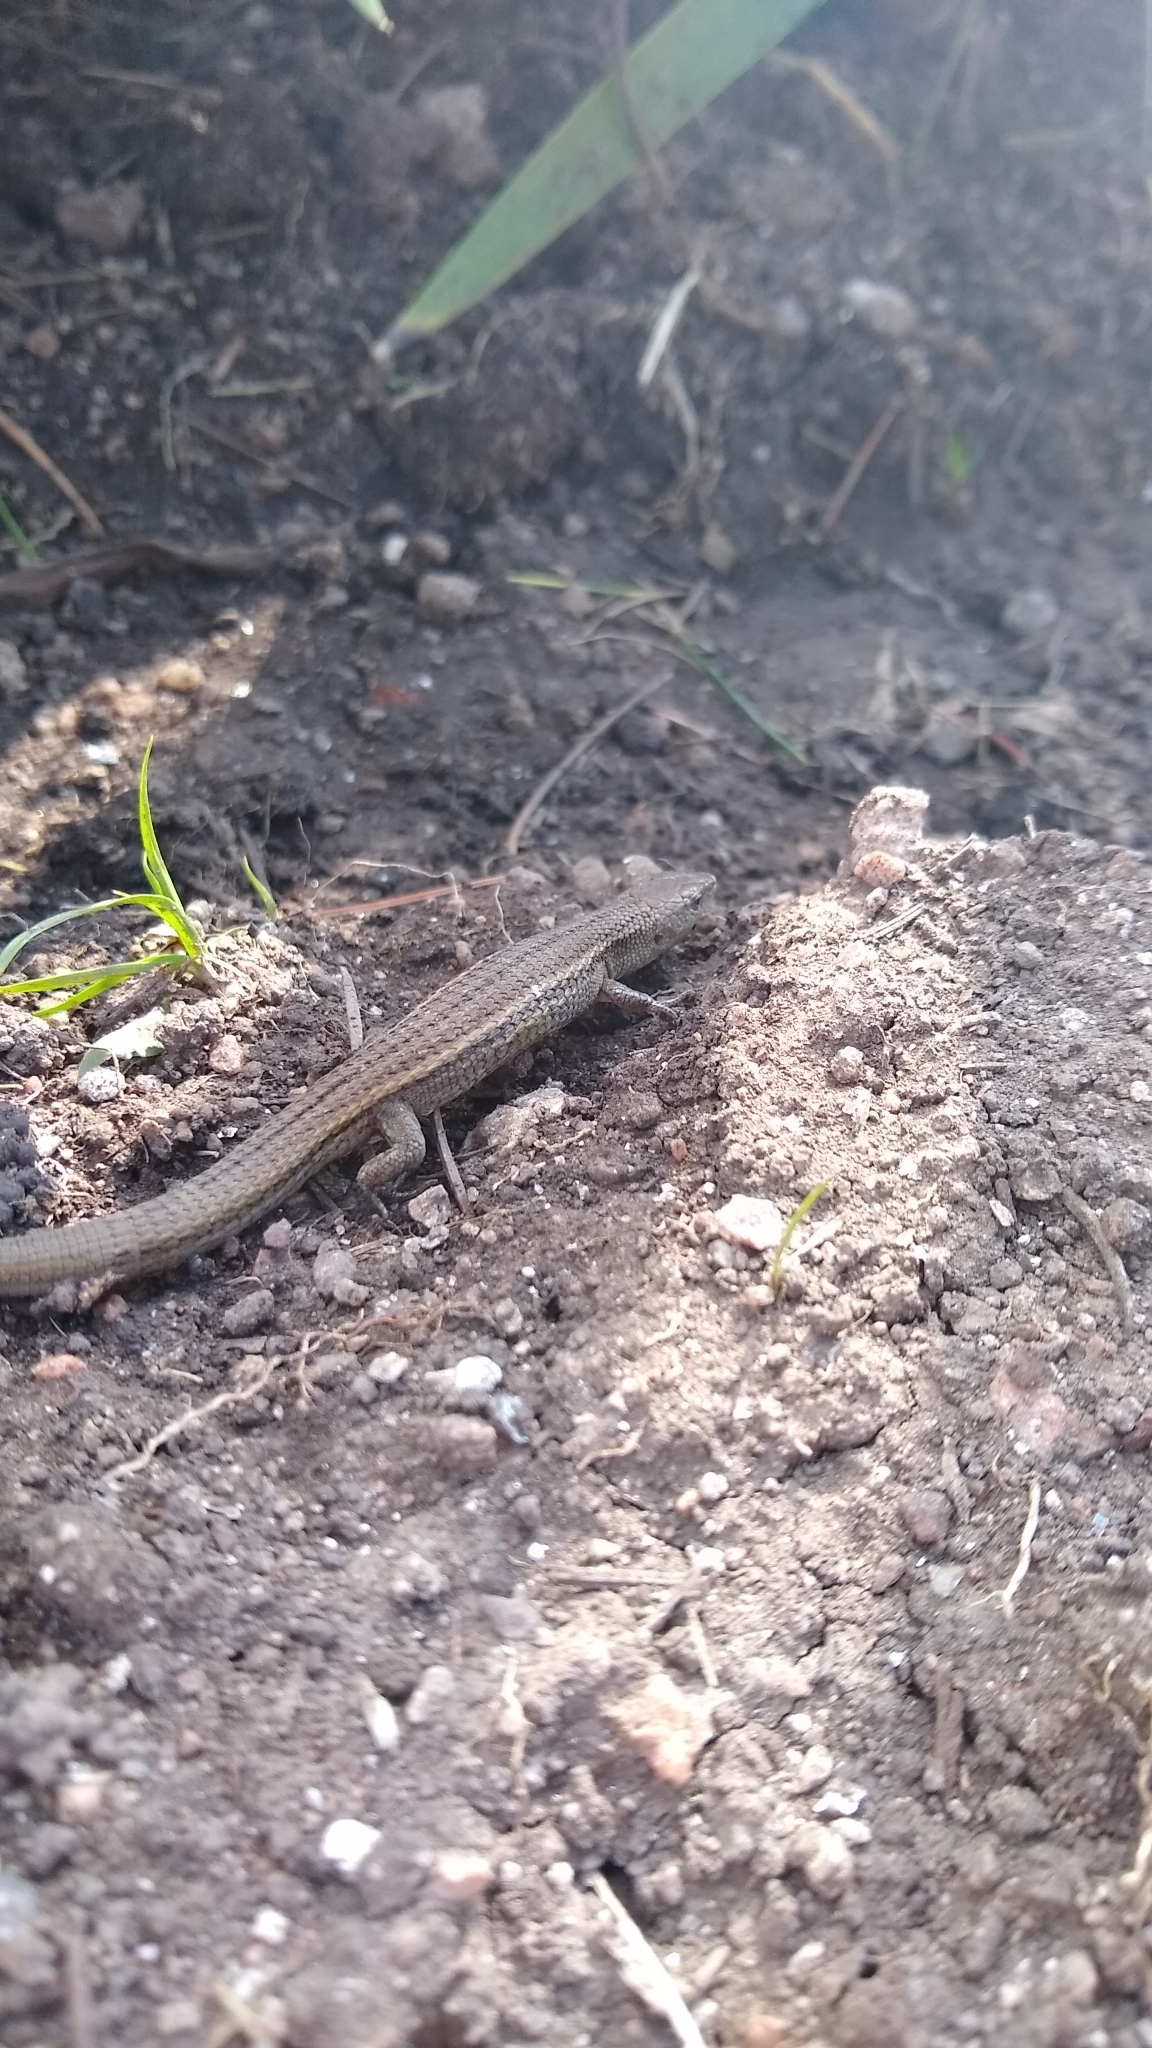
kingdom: Animalia
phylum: Chordata
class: Squamata
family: Gymnophthalmidae
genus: Cercosaura
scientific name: Cercosaura schreibersii
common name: Schreibers' many-fingered teiid
